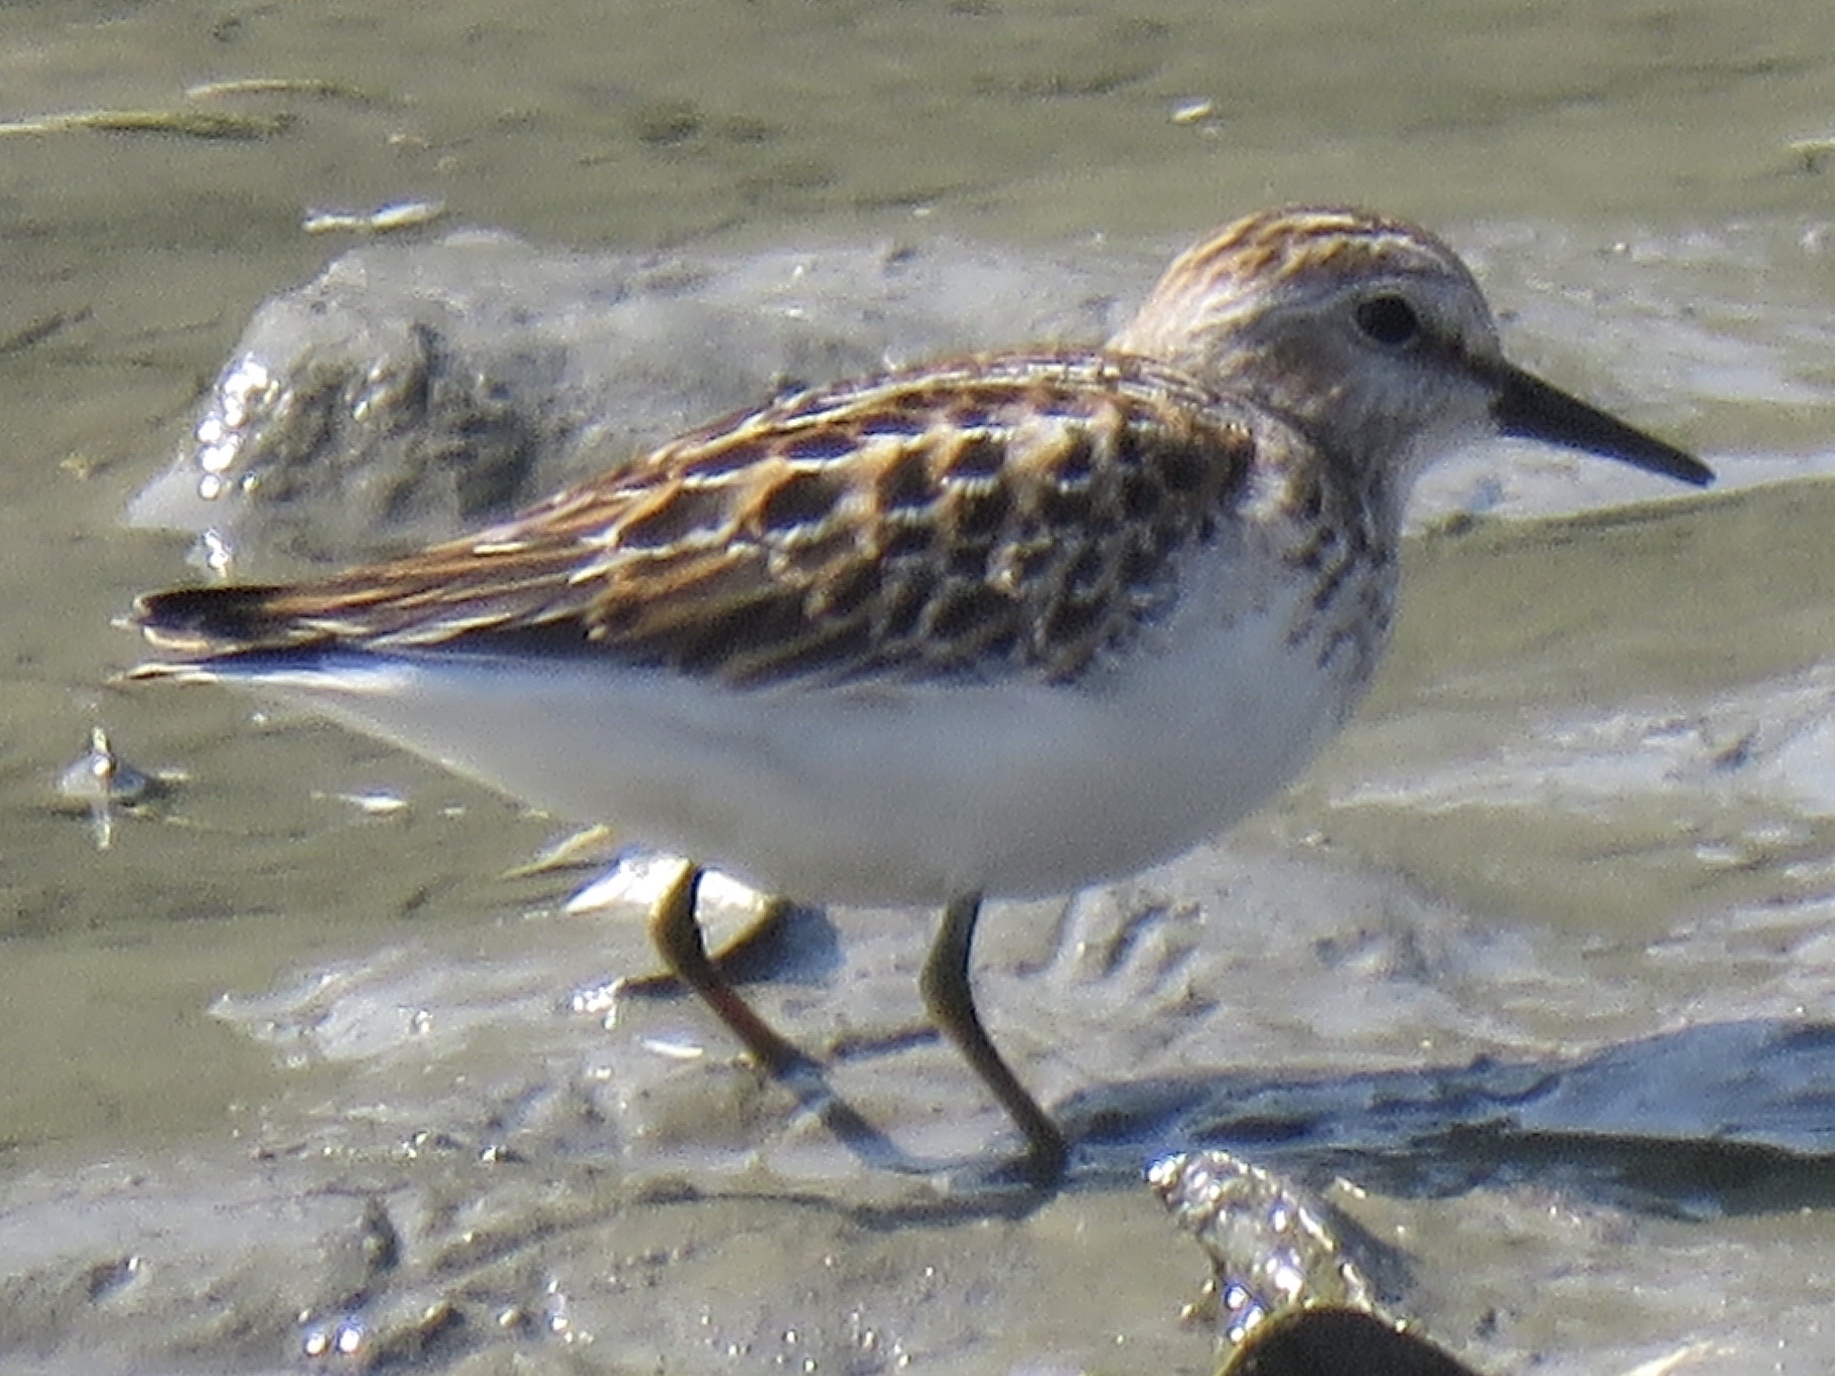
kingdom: Animalia
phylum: Chordata
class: Aves
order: Charadriiformes
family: Scolopacidae
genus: Calidris
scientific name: Calidris minutilla
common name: Least sandpiper
